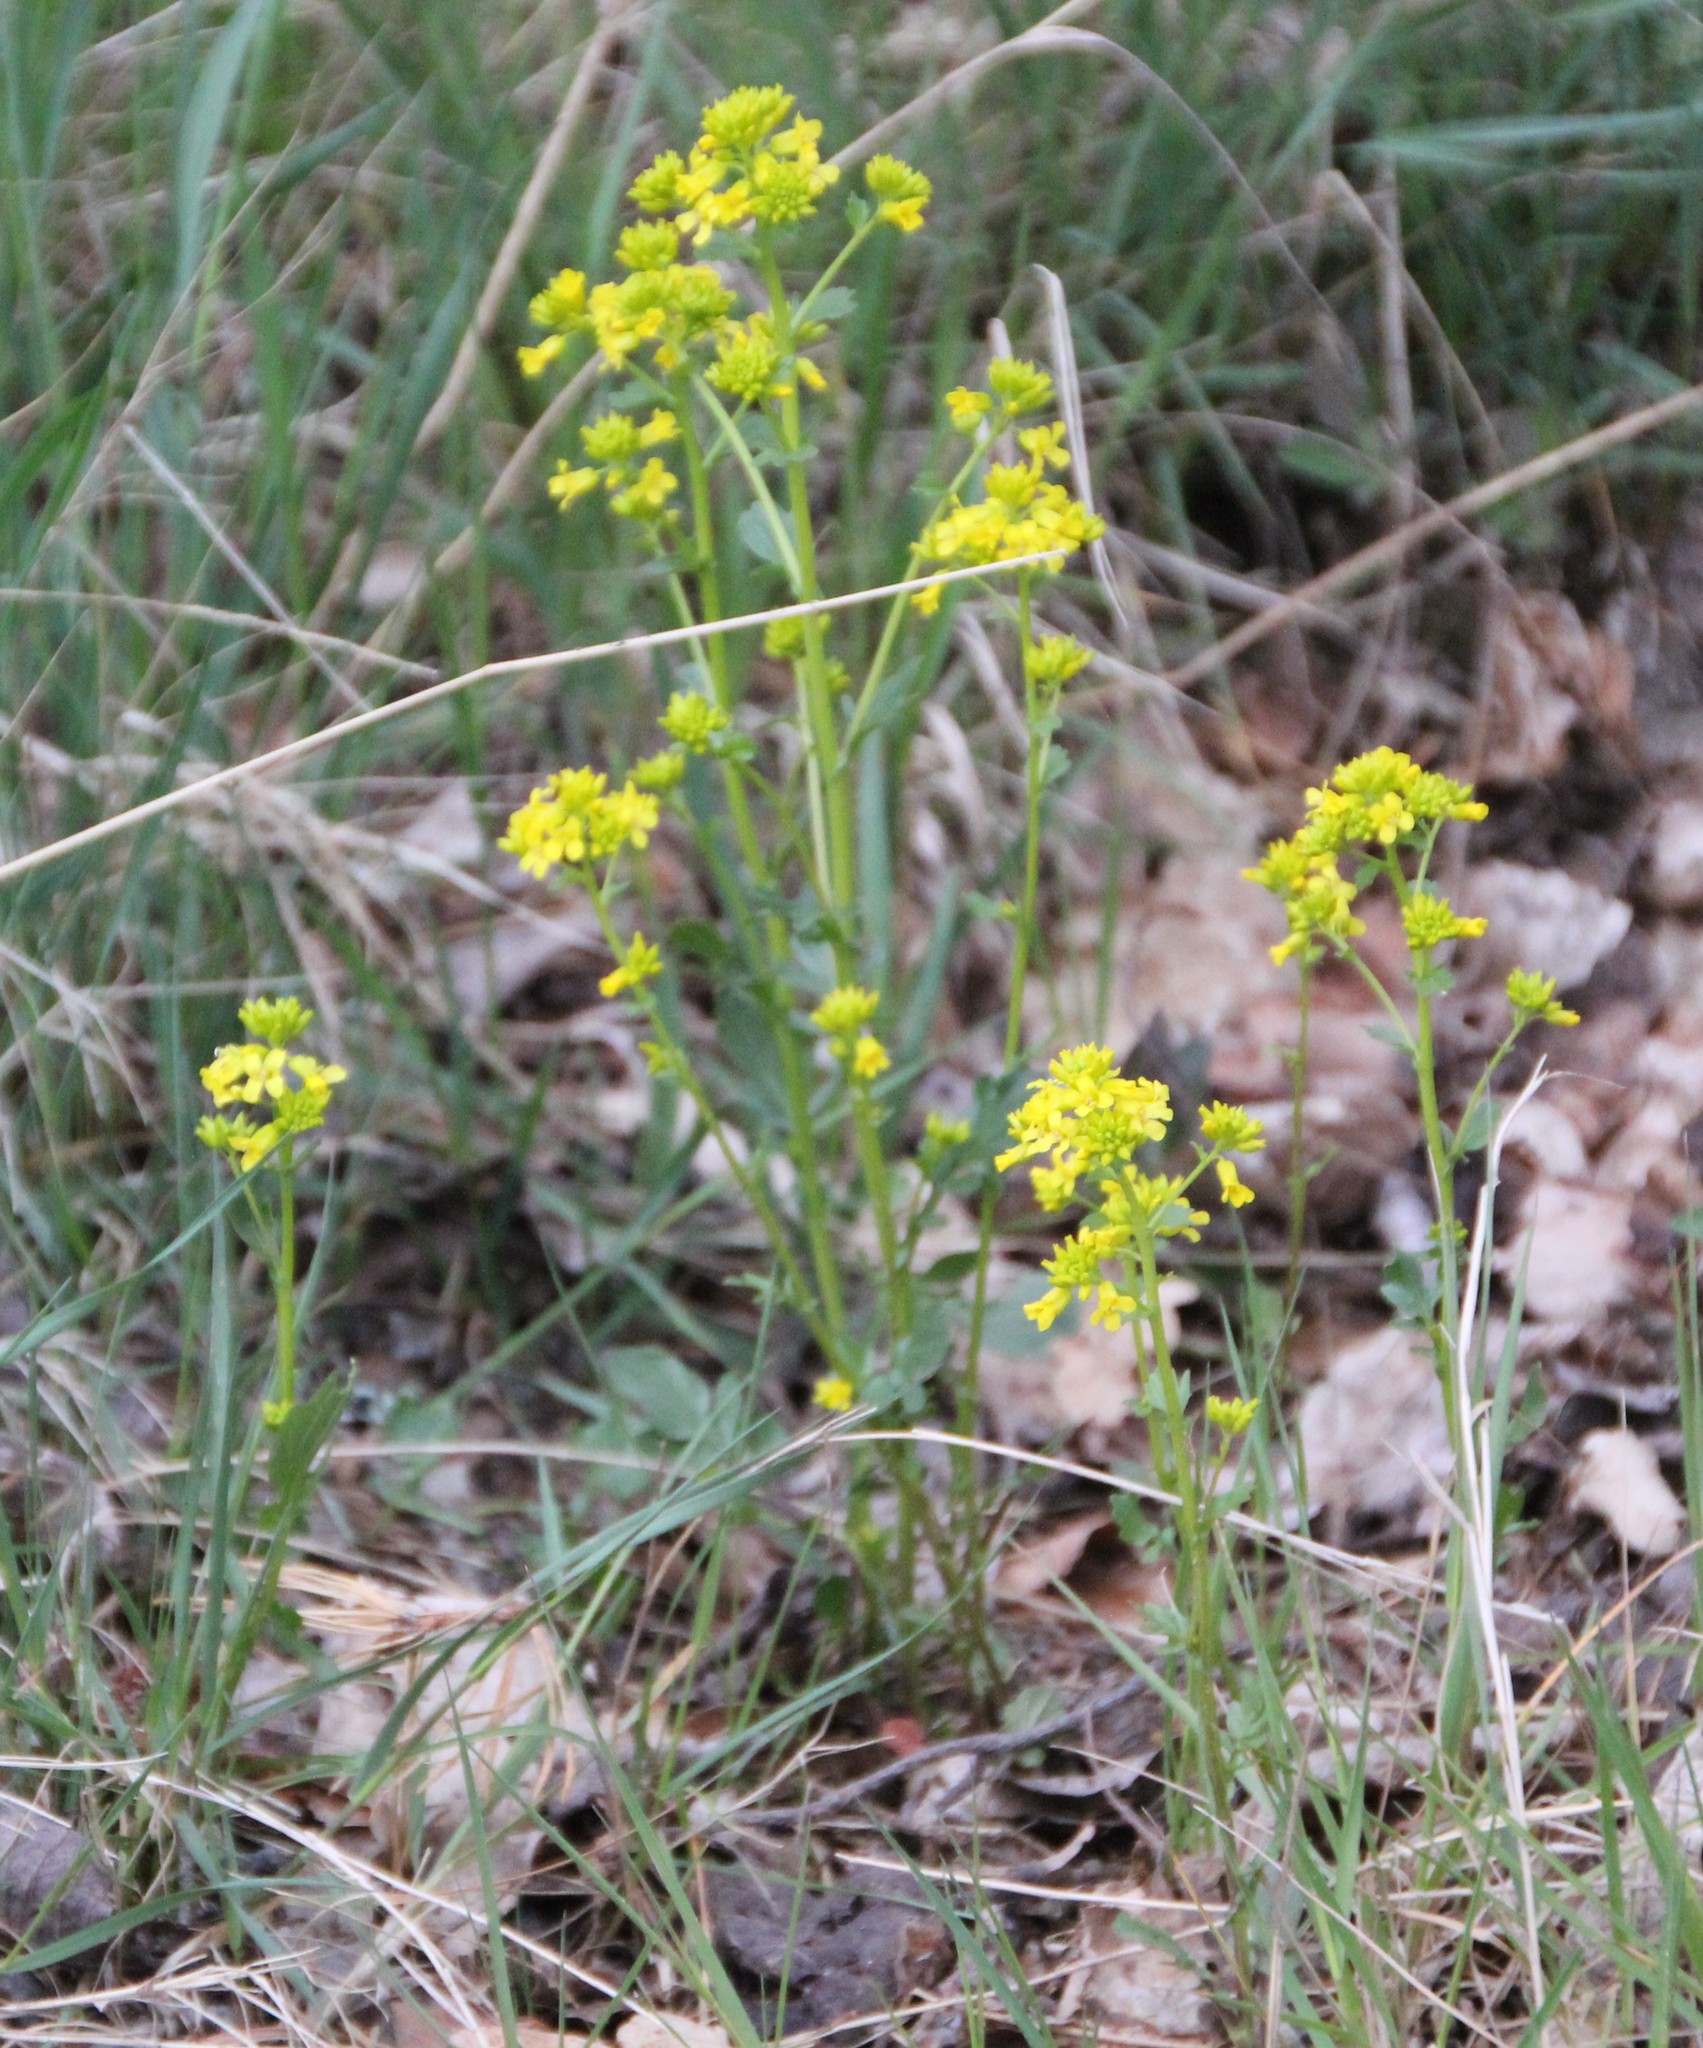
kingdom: Plantae
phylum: Tracheophyta
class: Magnoliopsida
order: Brassicales
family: Brassicaceae
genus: Barbarea
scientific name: Barbarea vulgaris
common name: Cressy-greens
